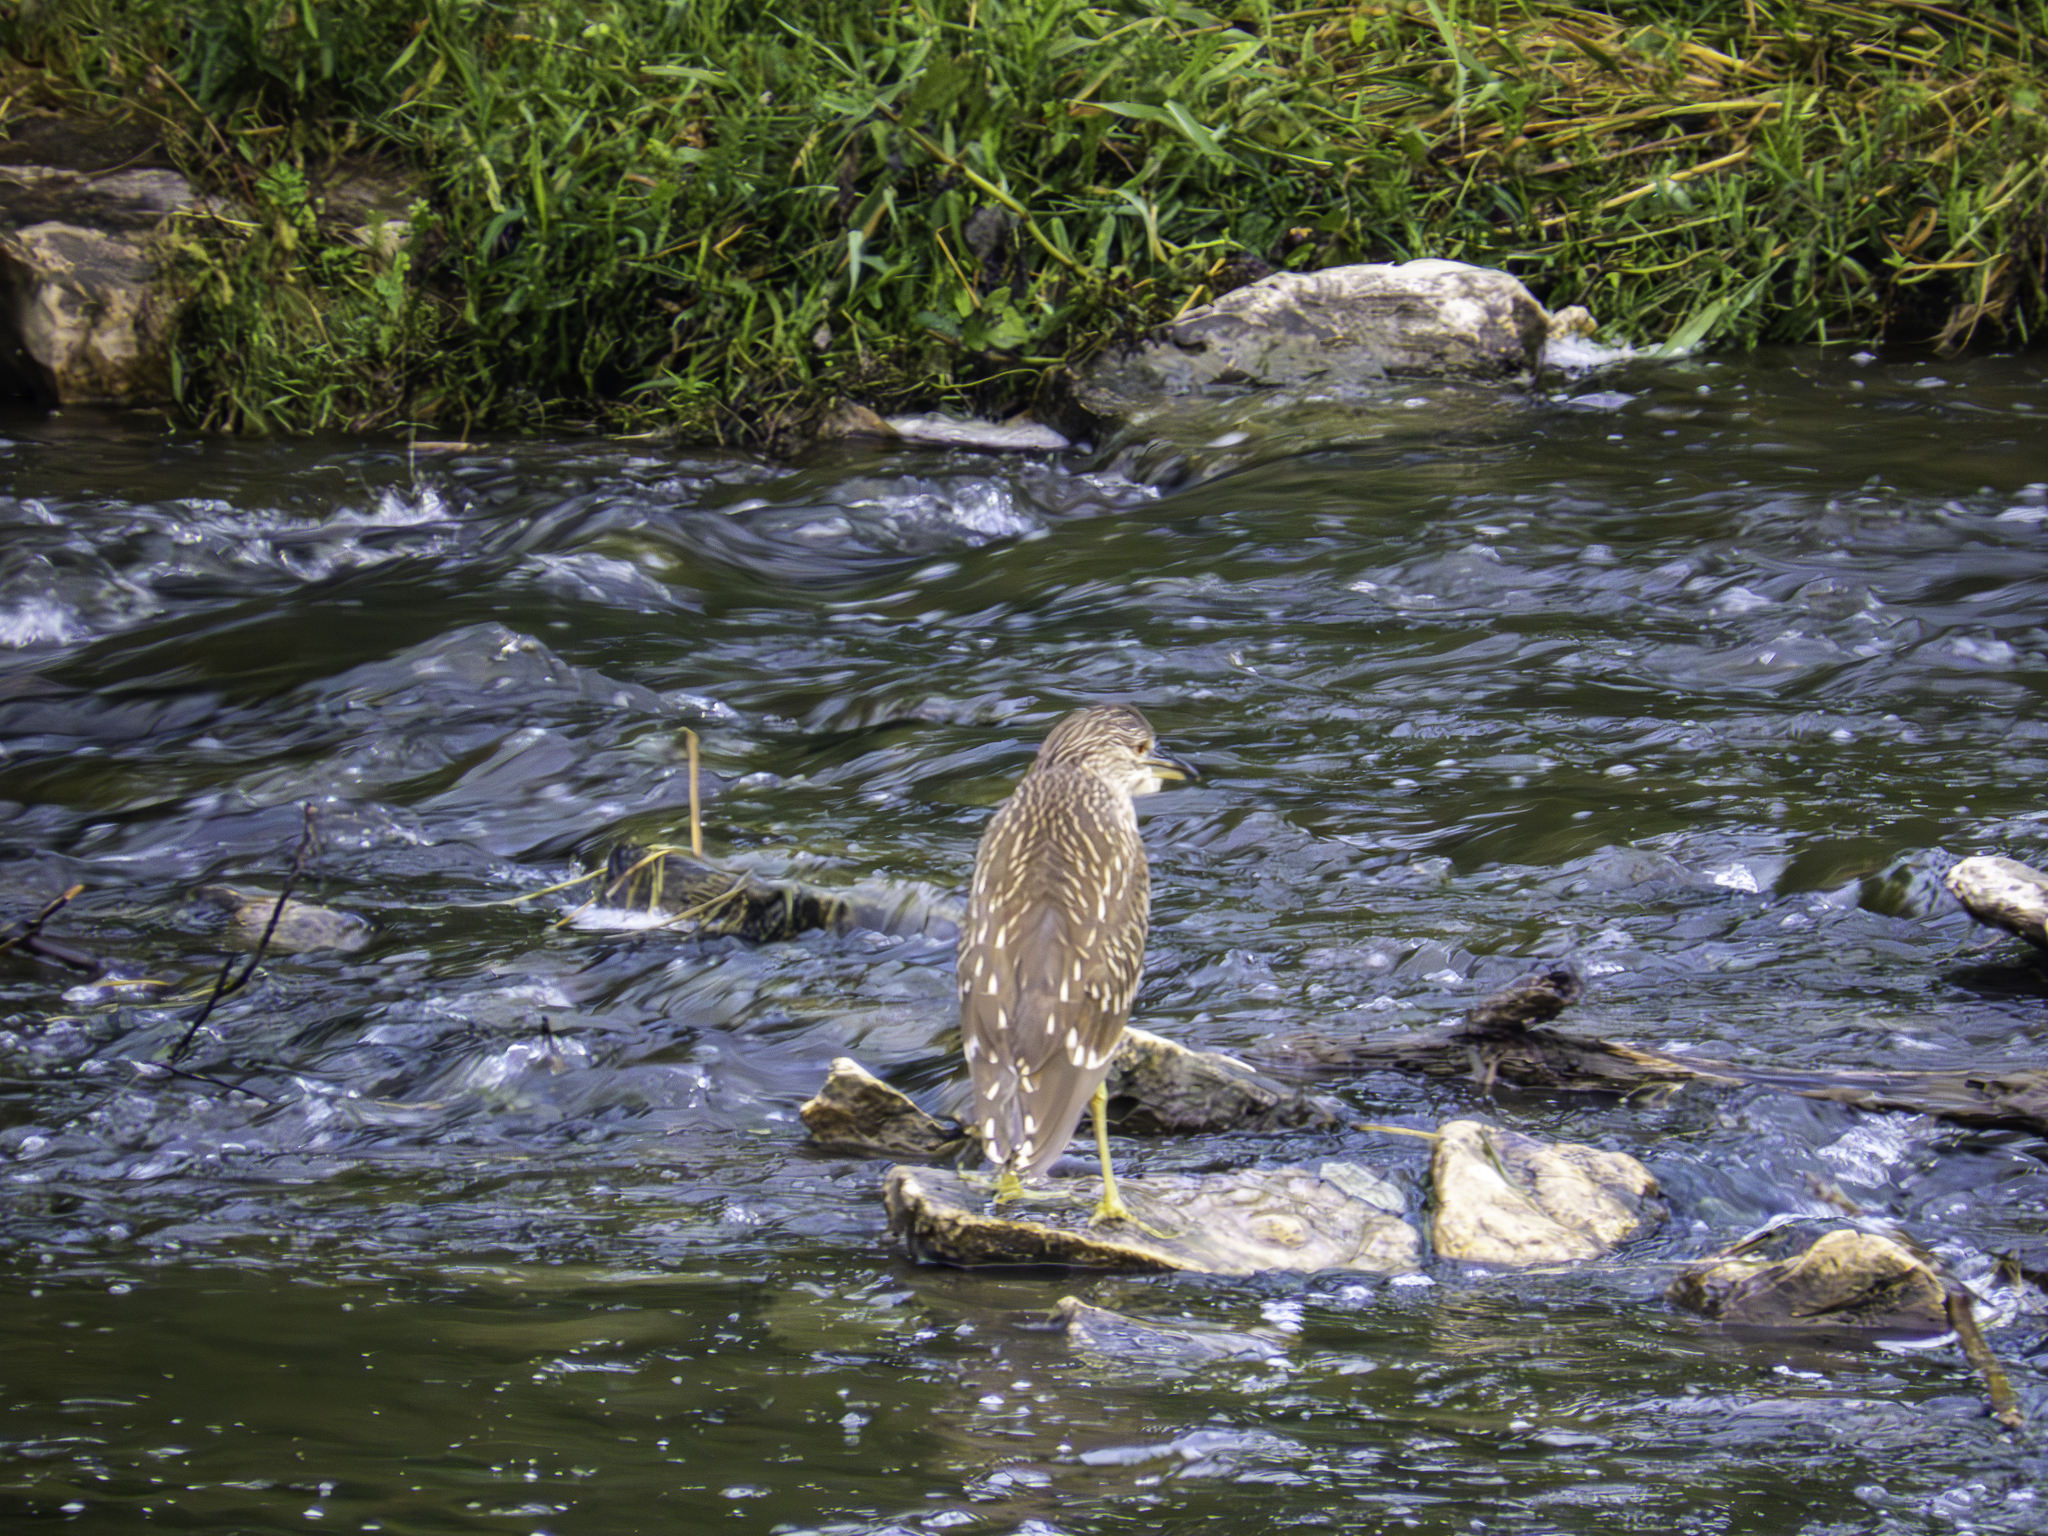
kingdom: Animalia
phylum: Chordata
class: Aves
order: Pelecaniformes
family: Ardeidae
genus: Nycticorax
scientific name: Nycticorax nycticorax
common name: Black-crowned night heron
